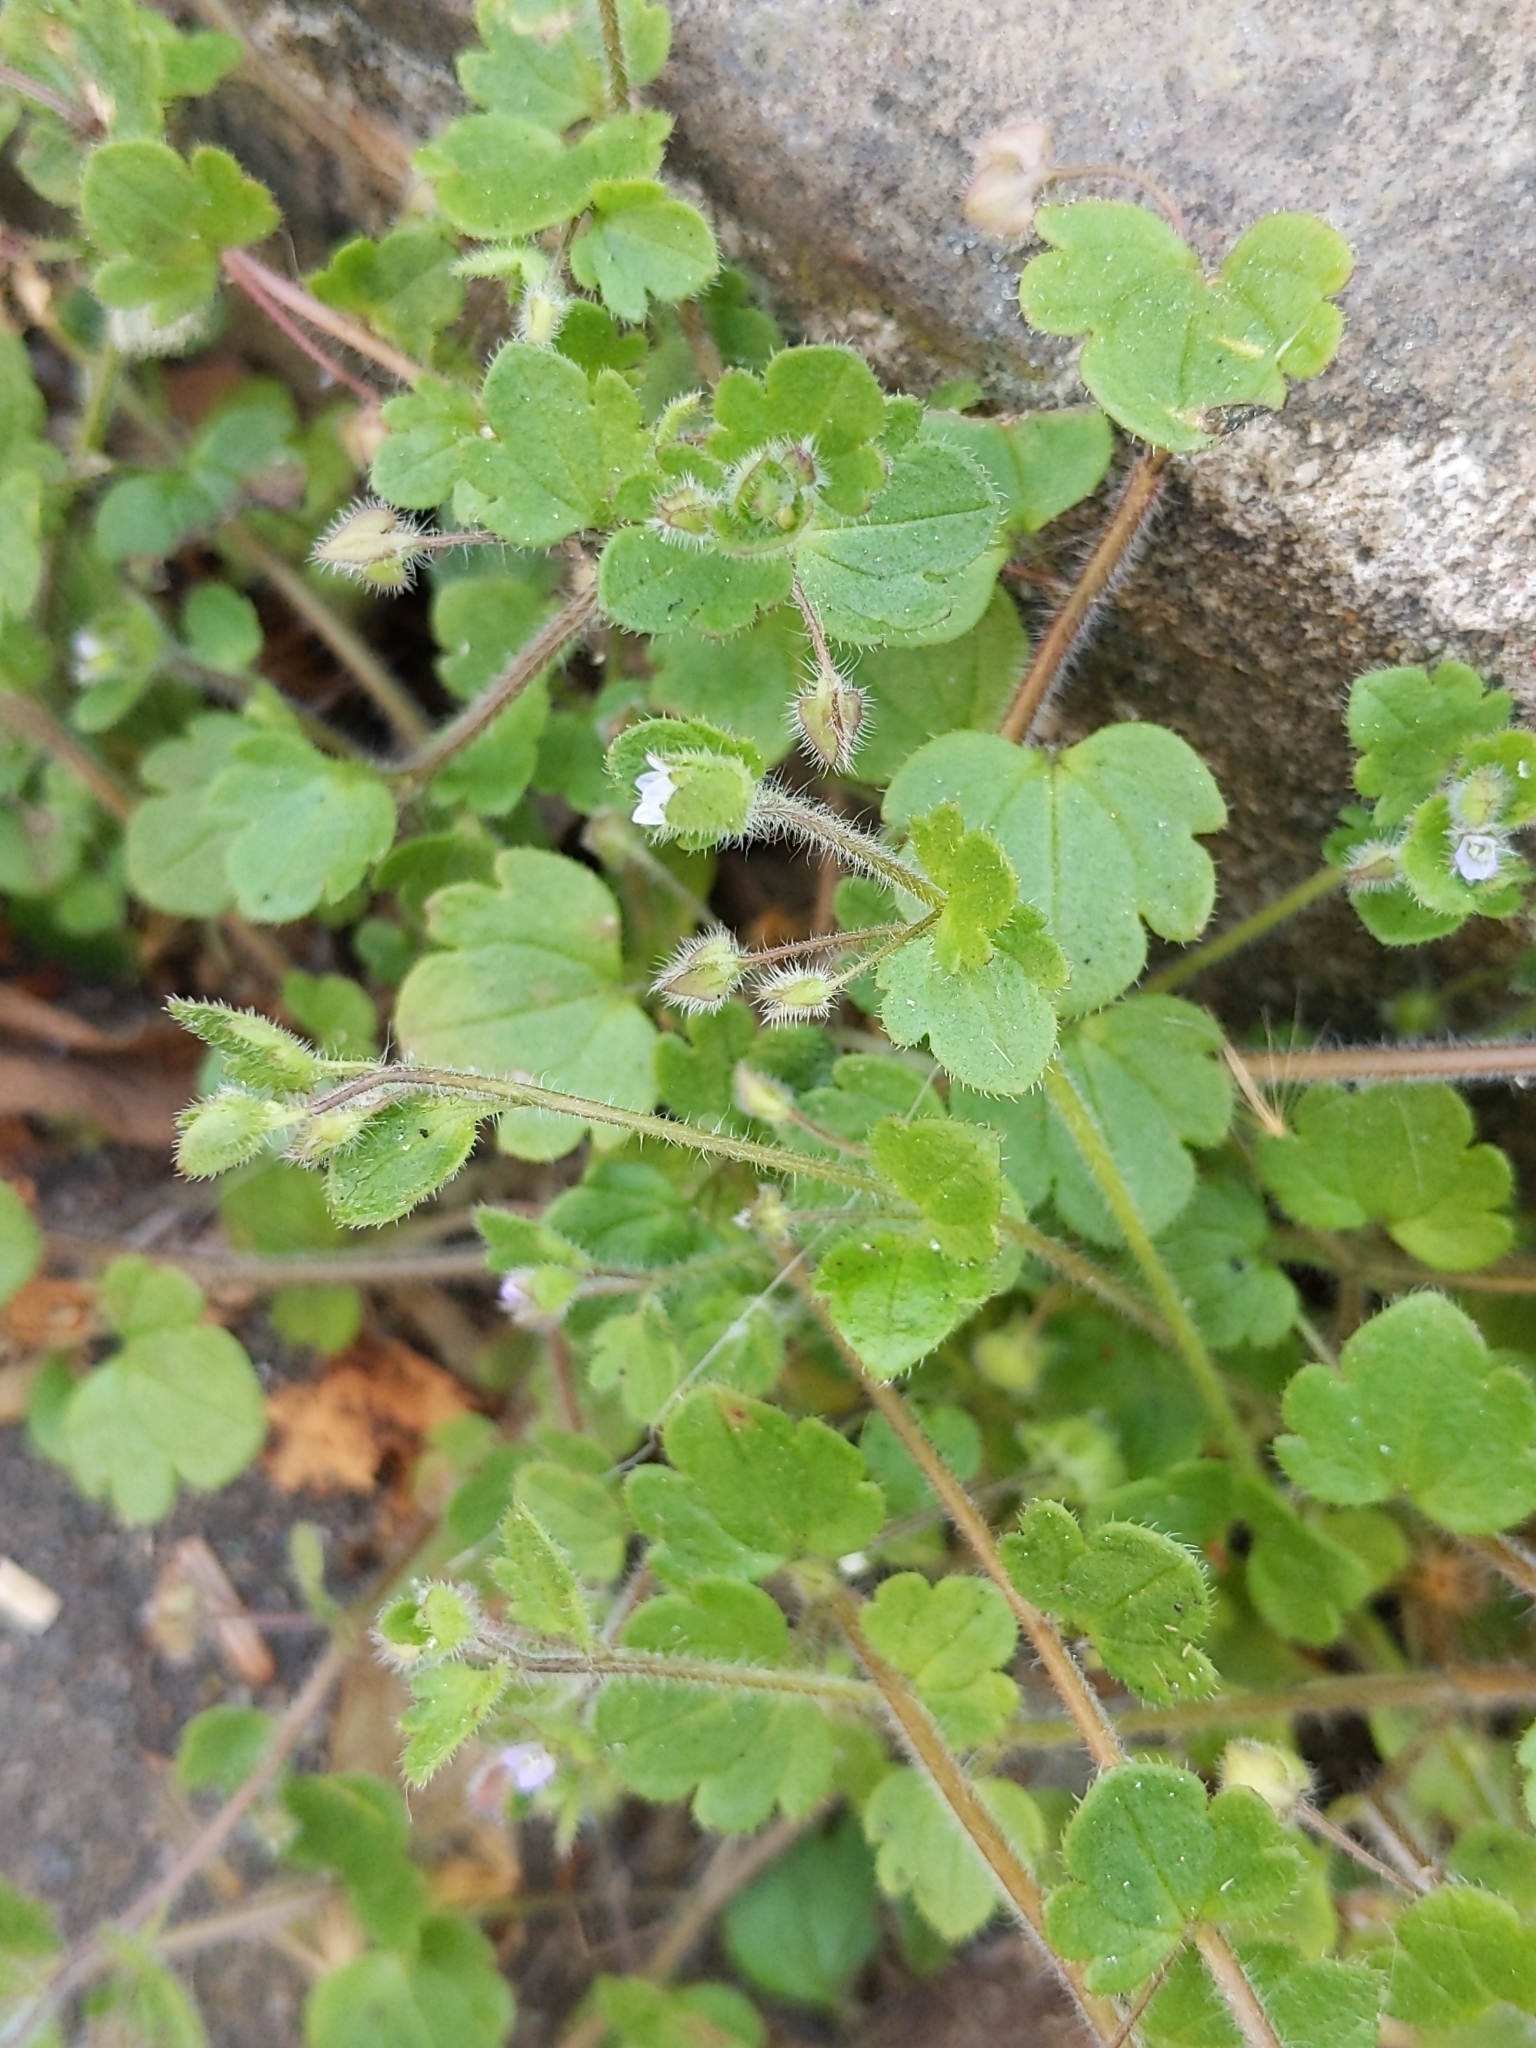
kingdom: Plantae
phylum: Tracheophyta
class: Magnoliopsida
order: Lamiales
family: Plantaginaceae
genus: Veronica
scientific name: Veronica sublobata
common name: False ivy-leaved speedwell
